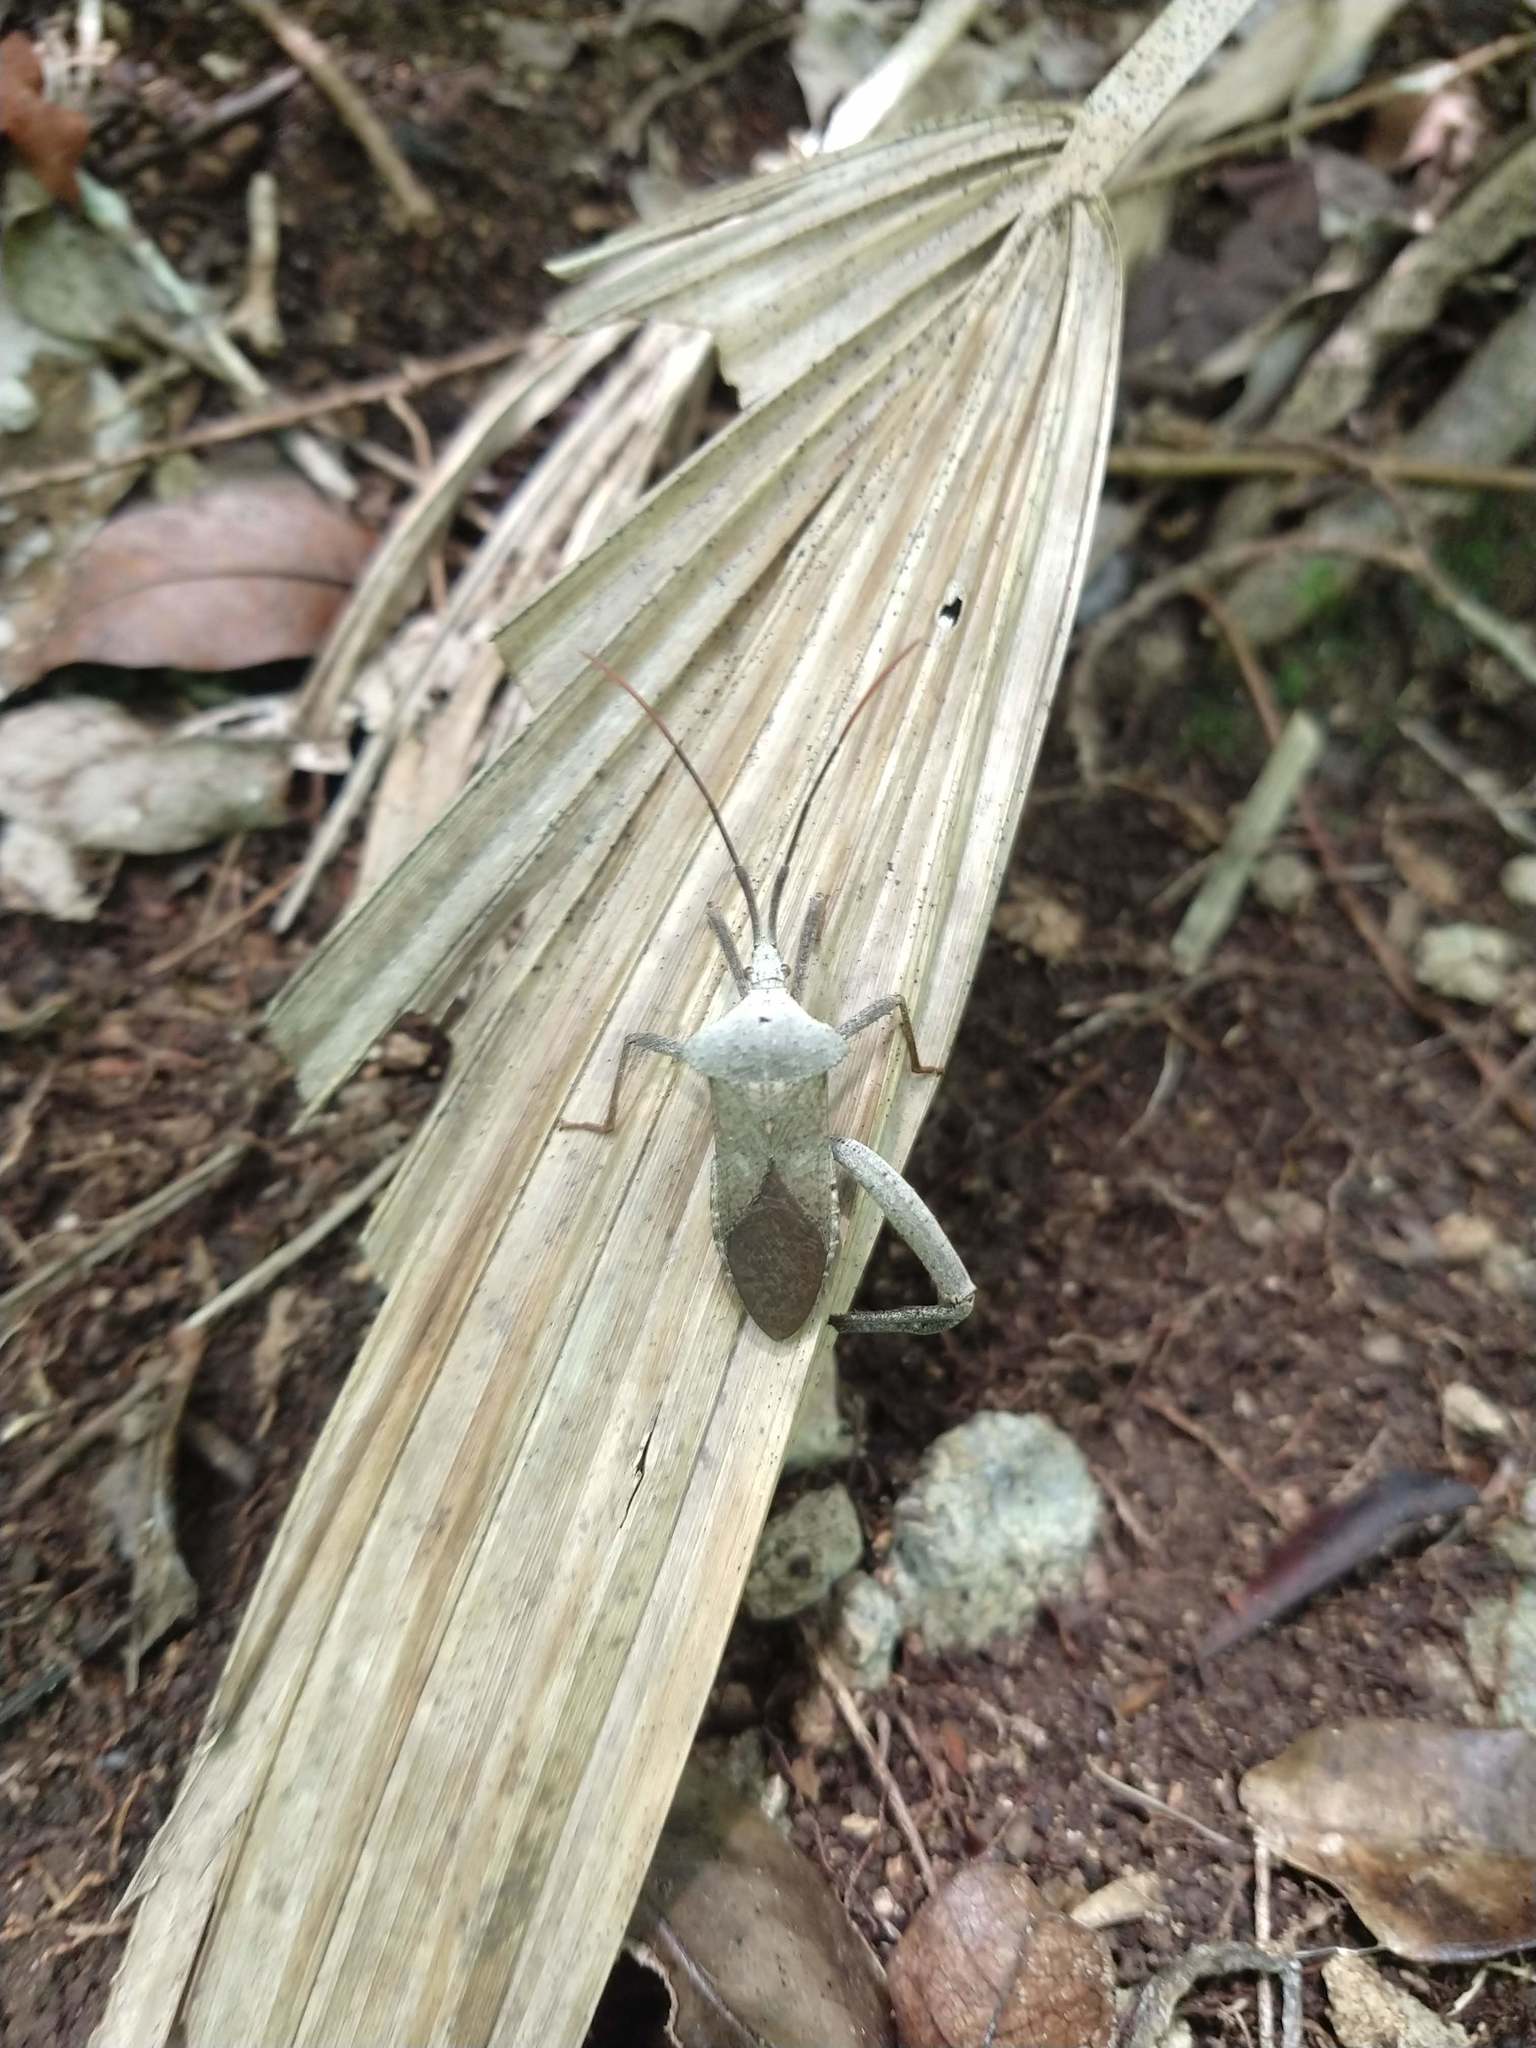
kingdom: Animalia
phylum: Arthropoda
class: Insecta
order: Hemiptera
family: Coreidae
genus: Acanthocephala
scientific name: Acanthocephala alata
